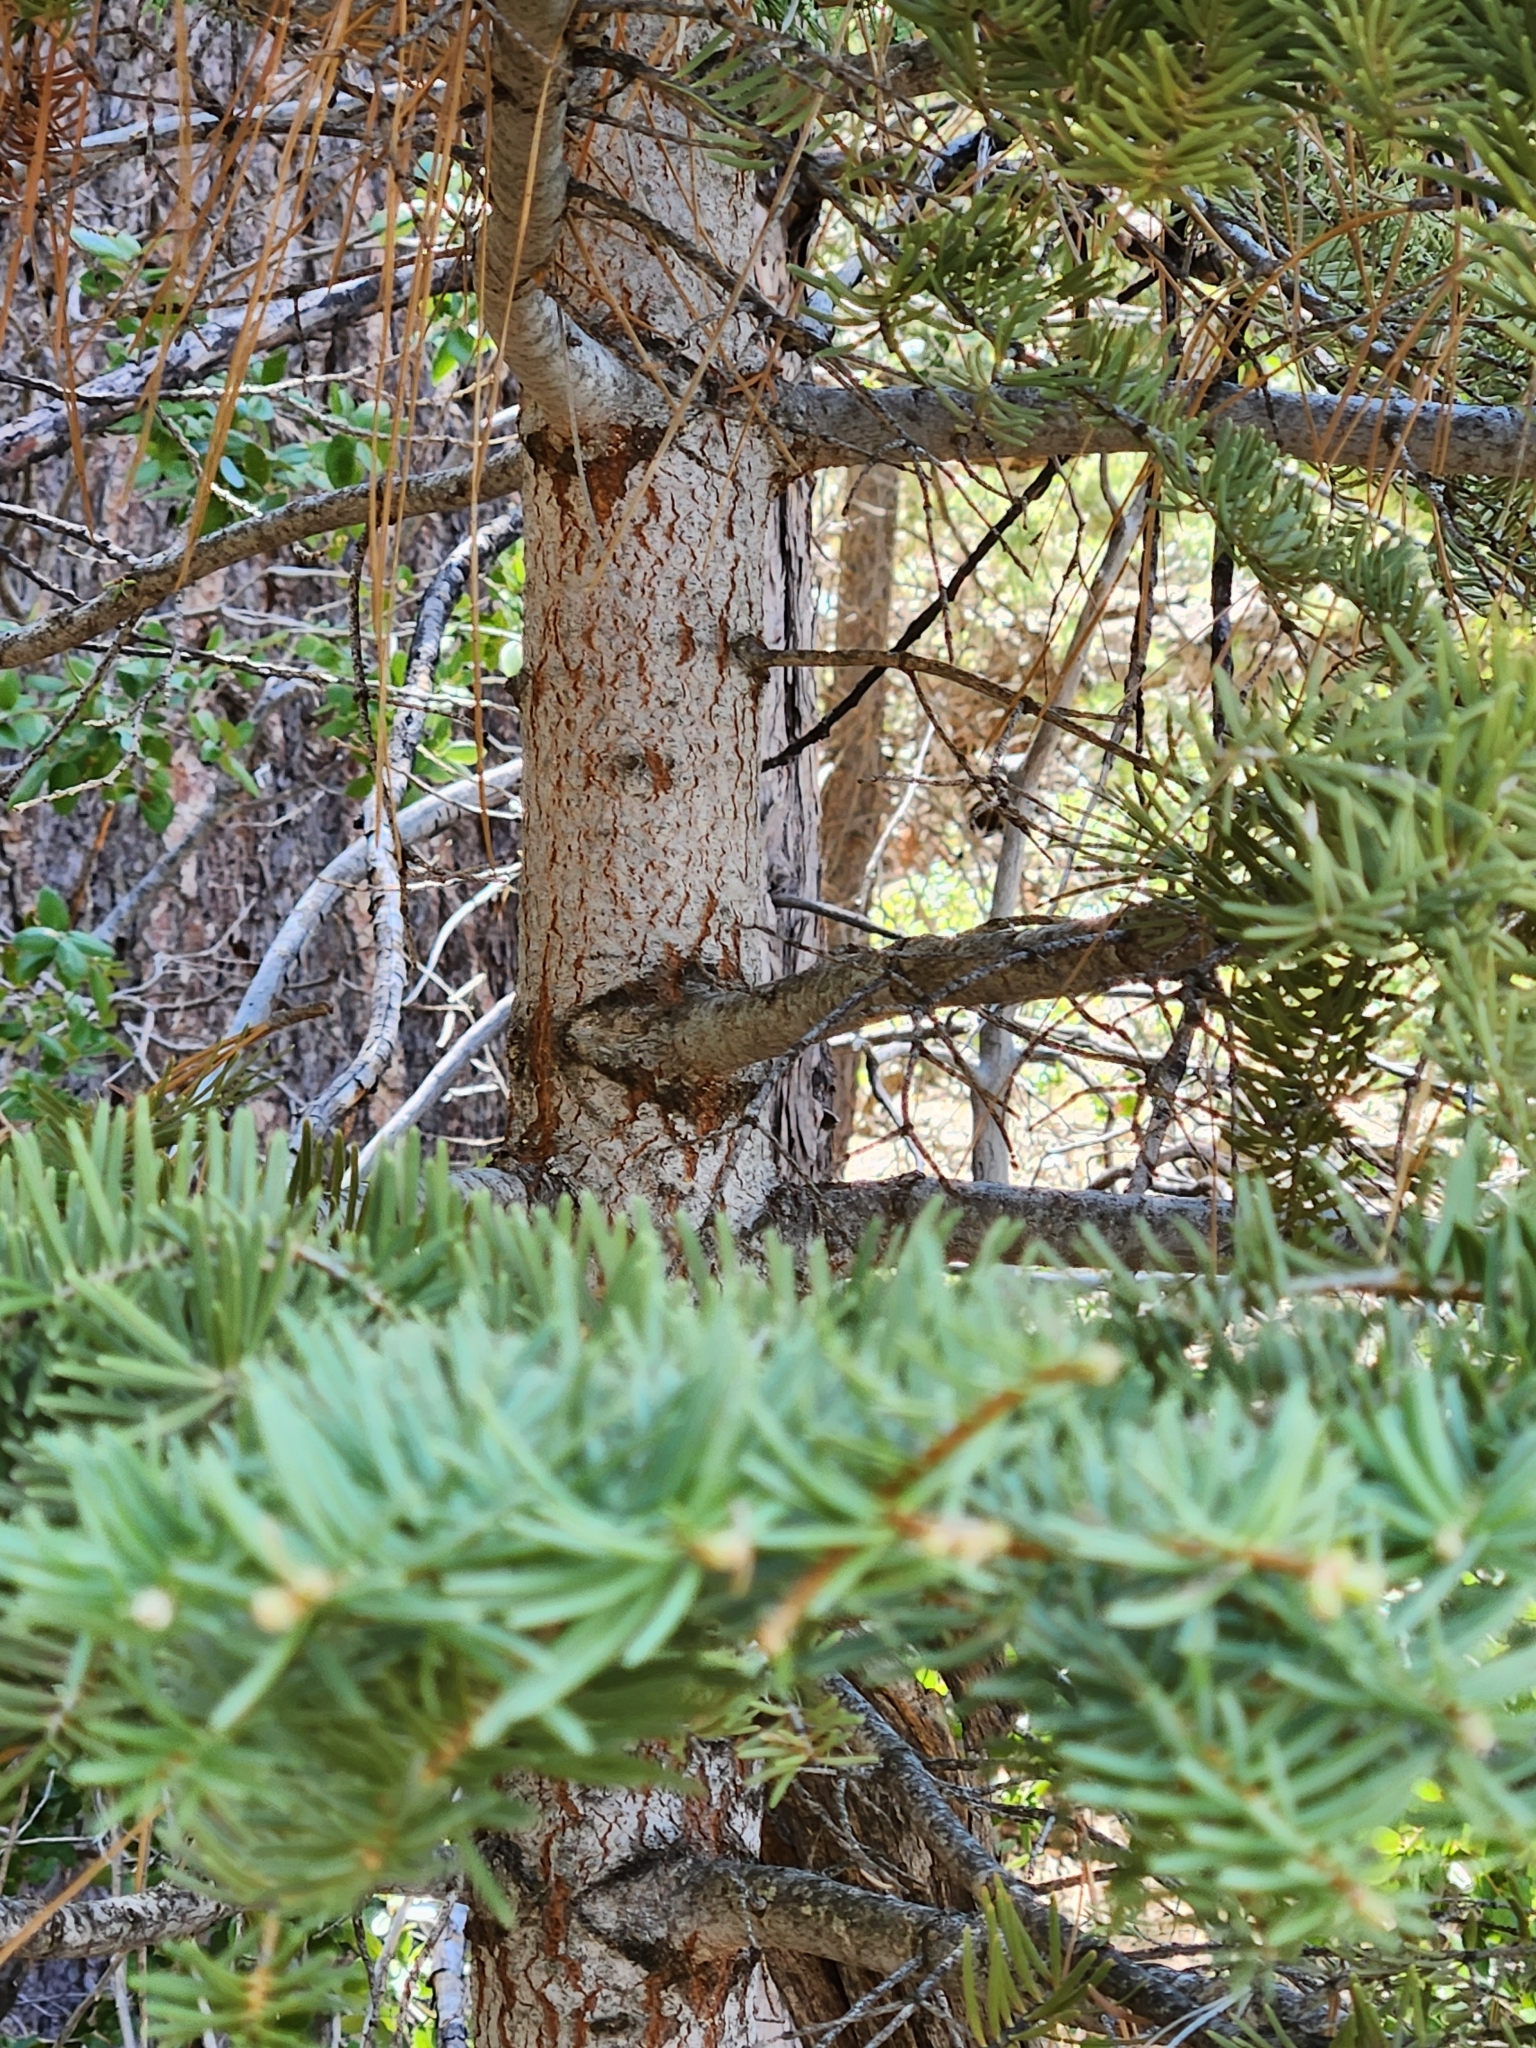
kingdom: Plantae
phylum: Tracheophyta
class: Pinopsida
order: Pinales
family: Pinaceae
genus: Abies
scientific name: Abies concolor
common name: Colorado fir
